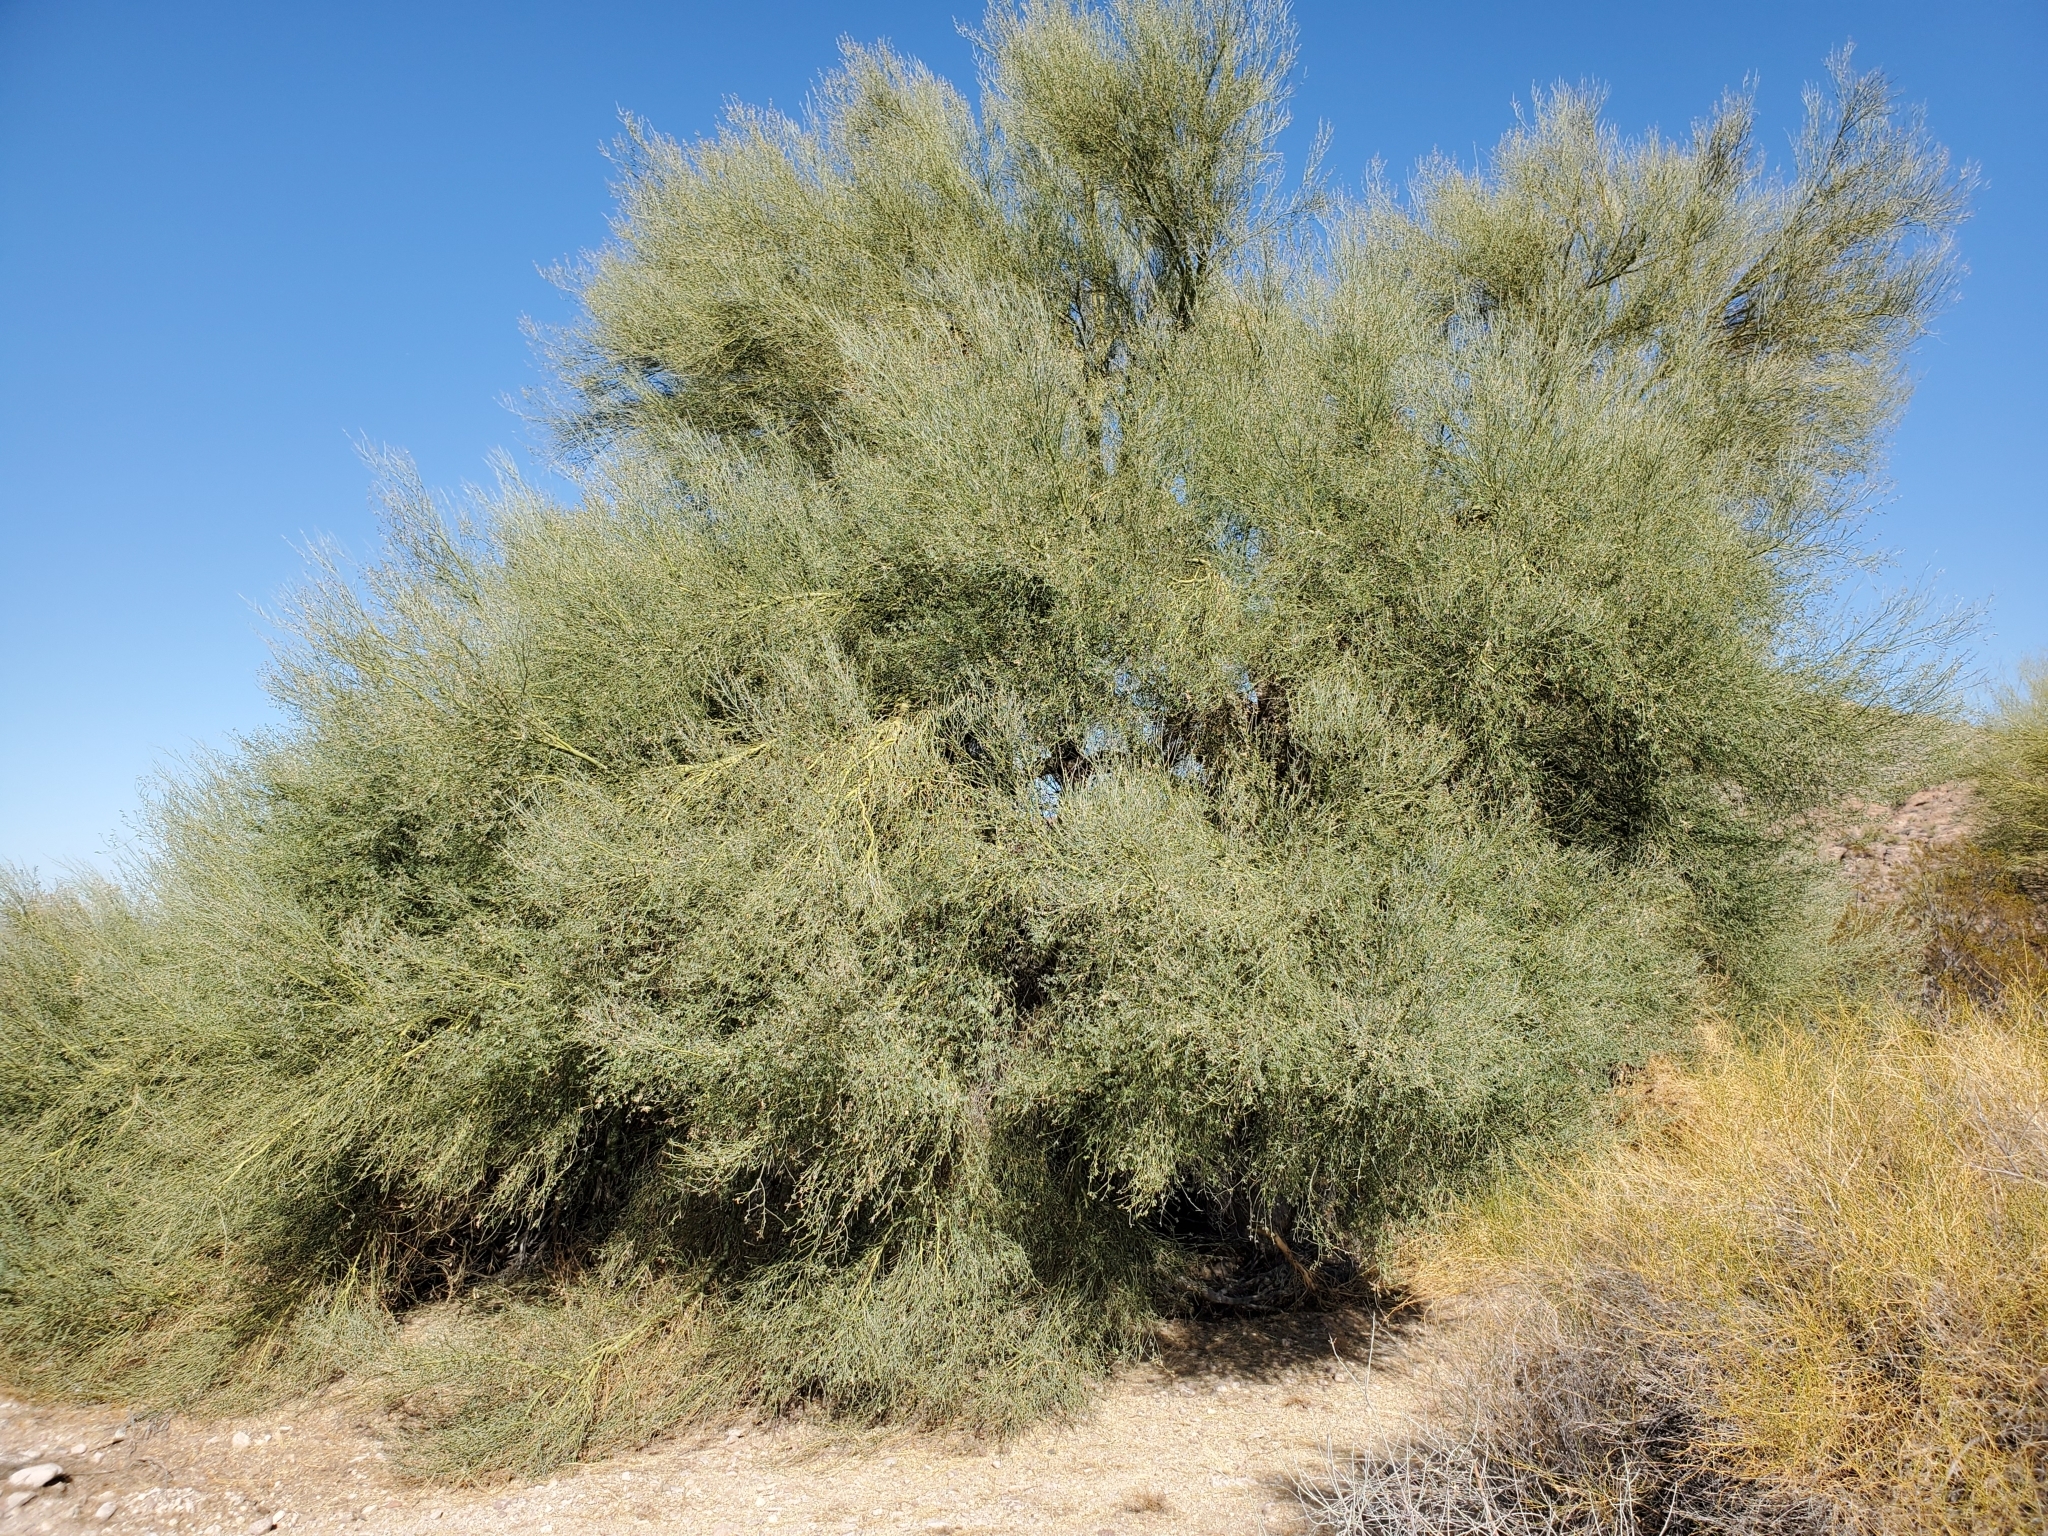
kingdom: Plantae
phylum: Tracheophyta
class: Magnoliopsida
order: Fabales
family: Fabaceae
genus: Parkinsonia
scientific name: Parkinsonia florida
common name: Blue paloverde
